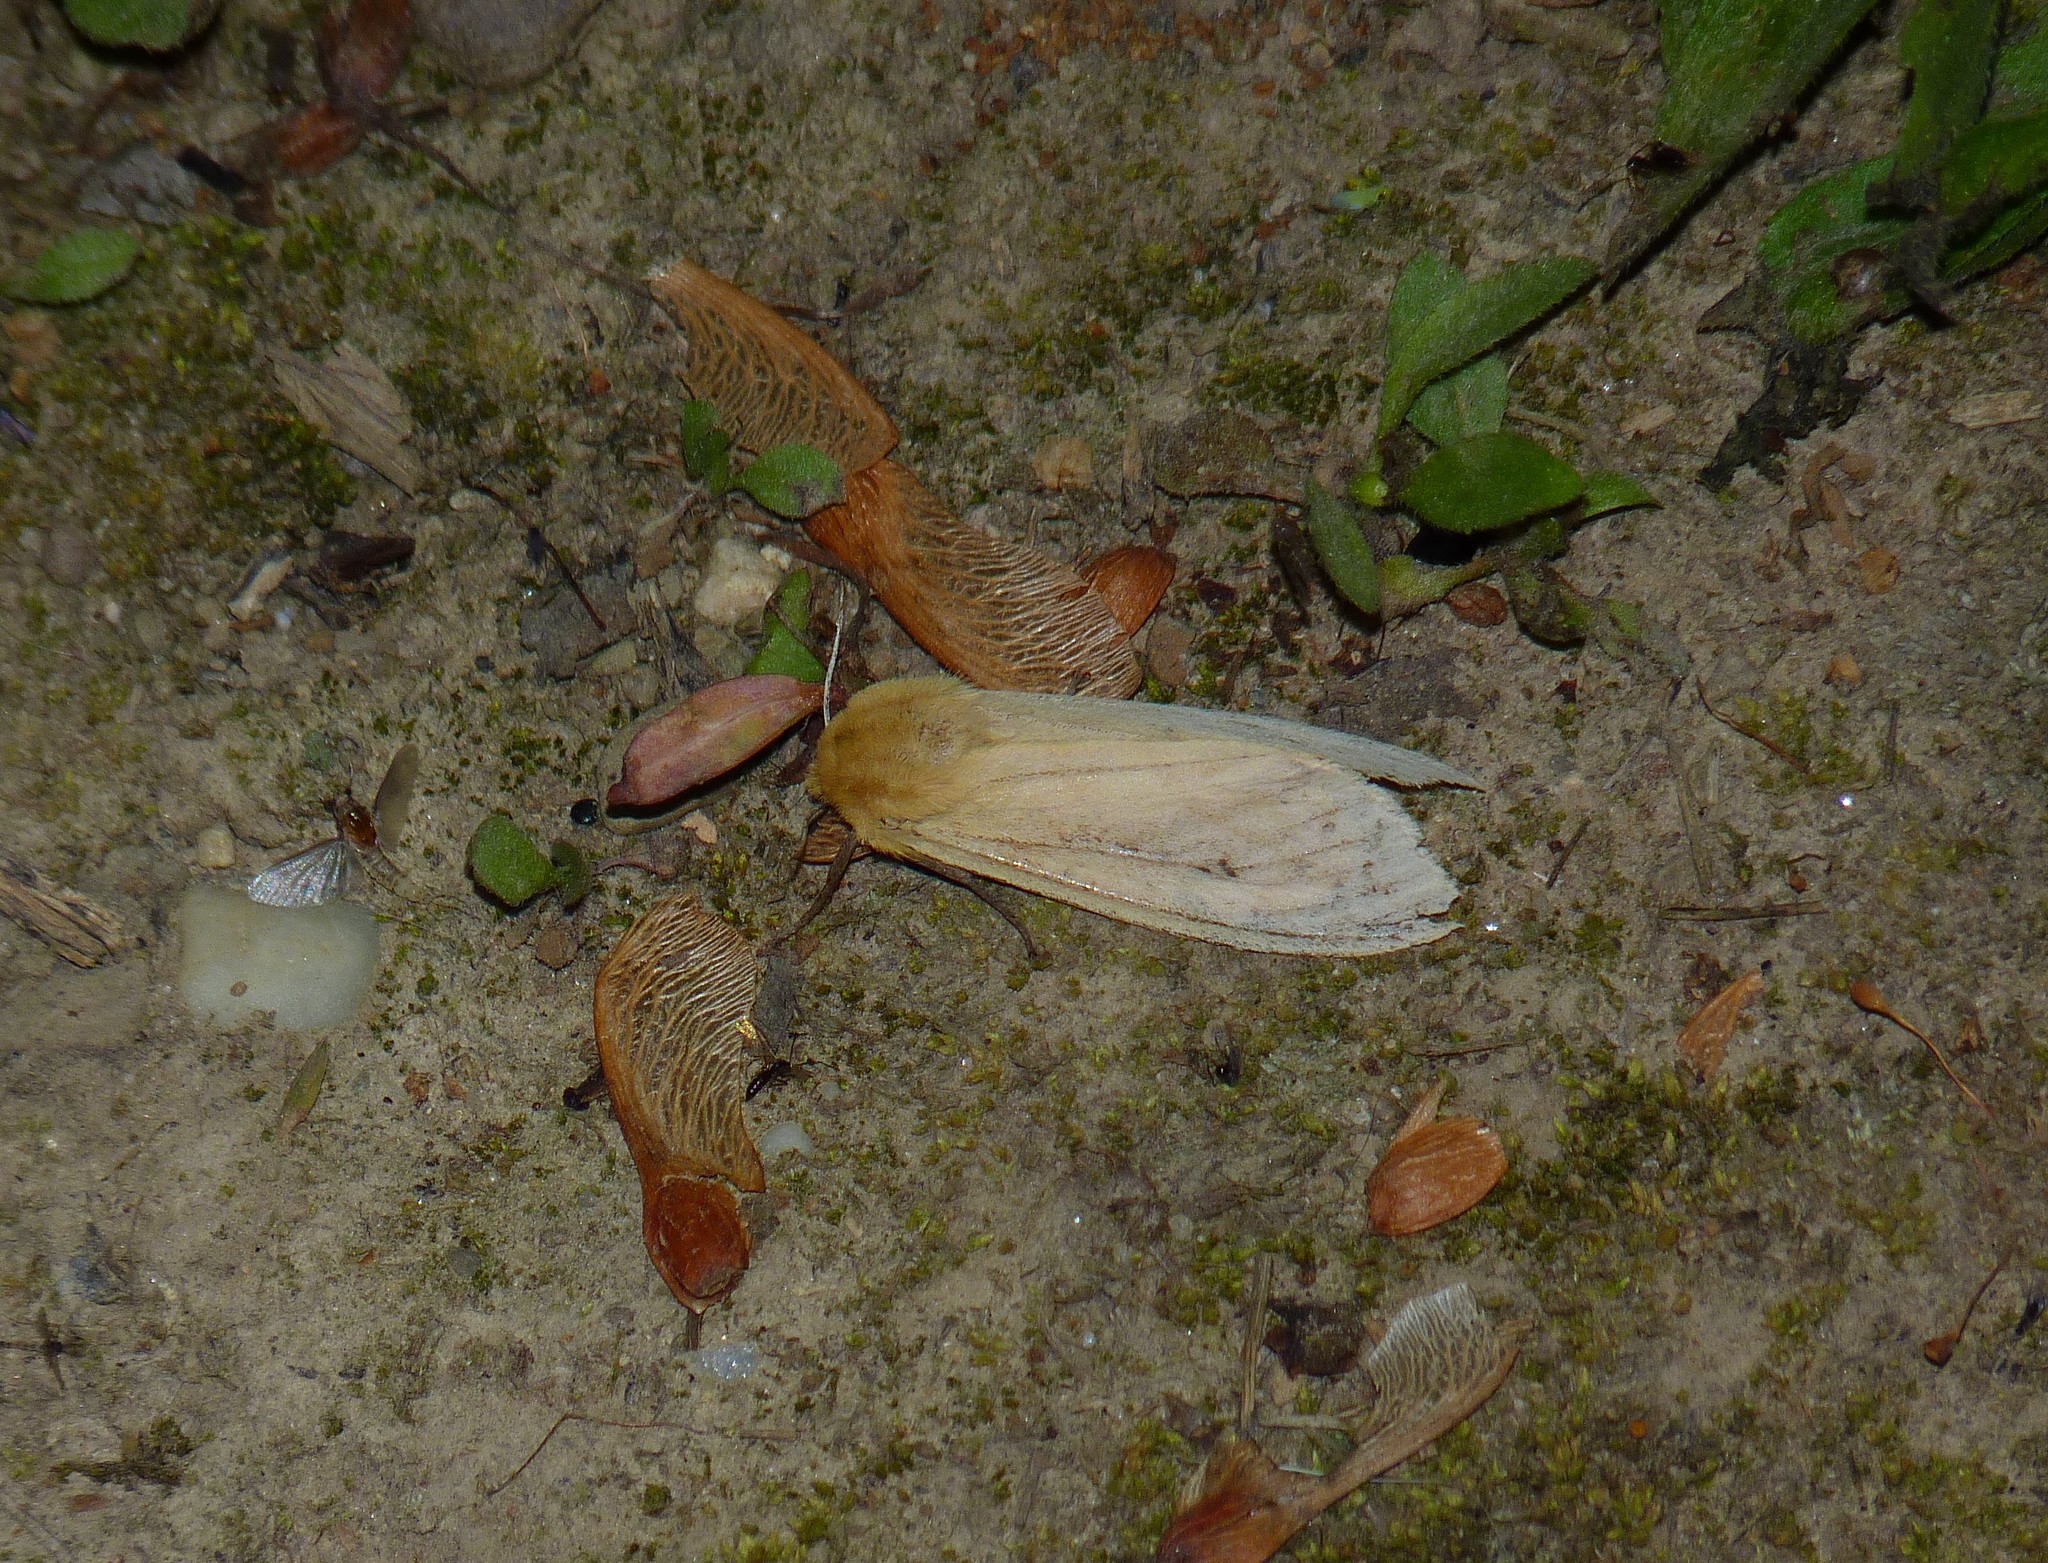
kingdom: Animalia
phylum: Arthropoda
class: Insecta
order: Lepidoptera
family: Erebidae
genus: Pyrrharctia
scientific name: Pyrrharctia isabella
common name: Isabella tiger moth
